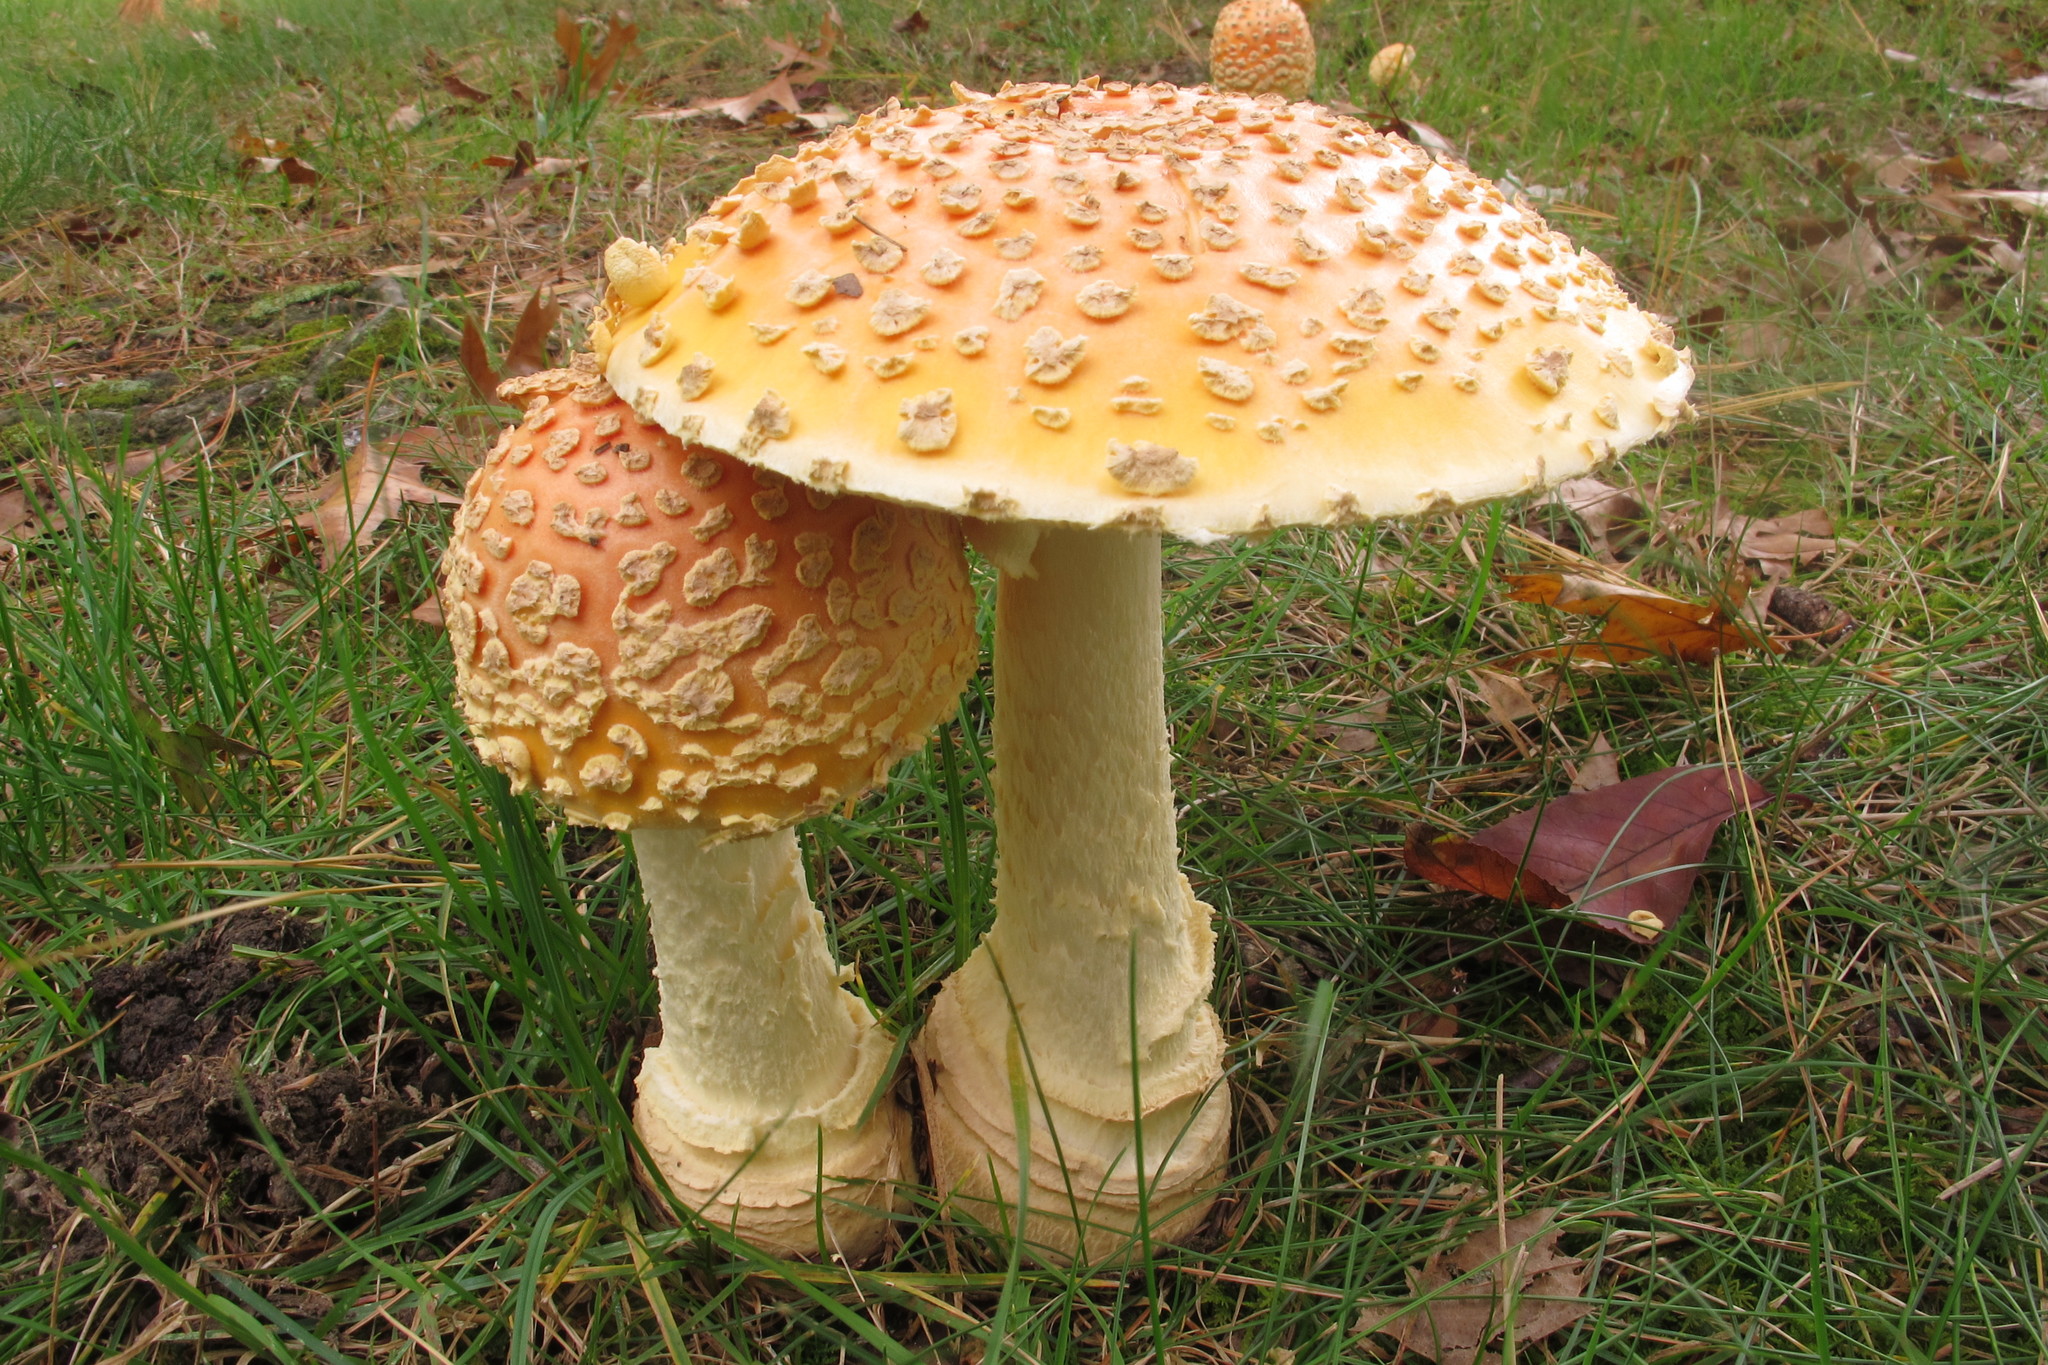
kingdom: Fungi
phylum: Basidiomycota
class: Agaricomycetes
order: Agaricales
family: Amanitaceae
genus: Amanita
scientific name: Amanita muscaria
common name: Fly agaric
